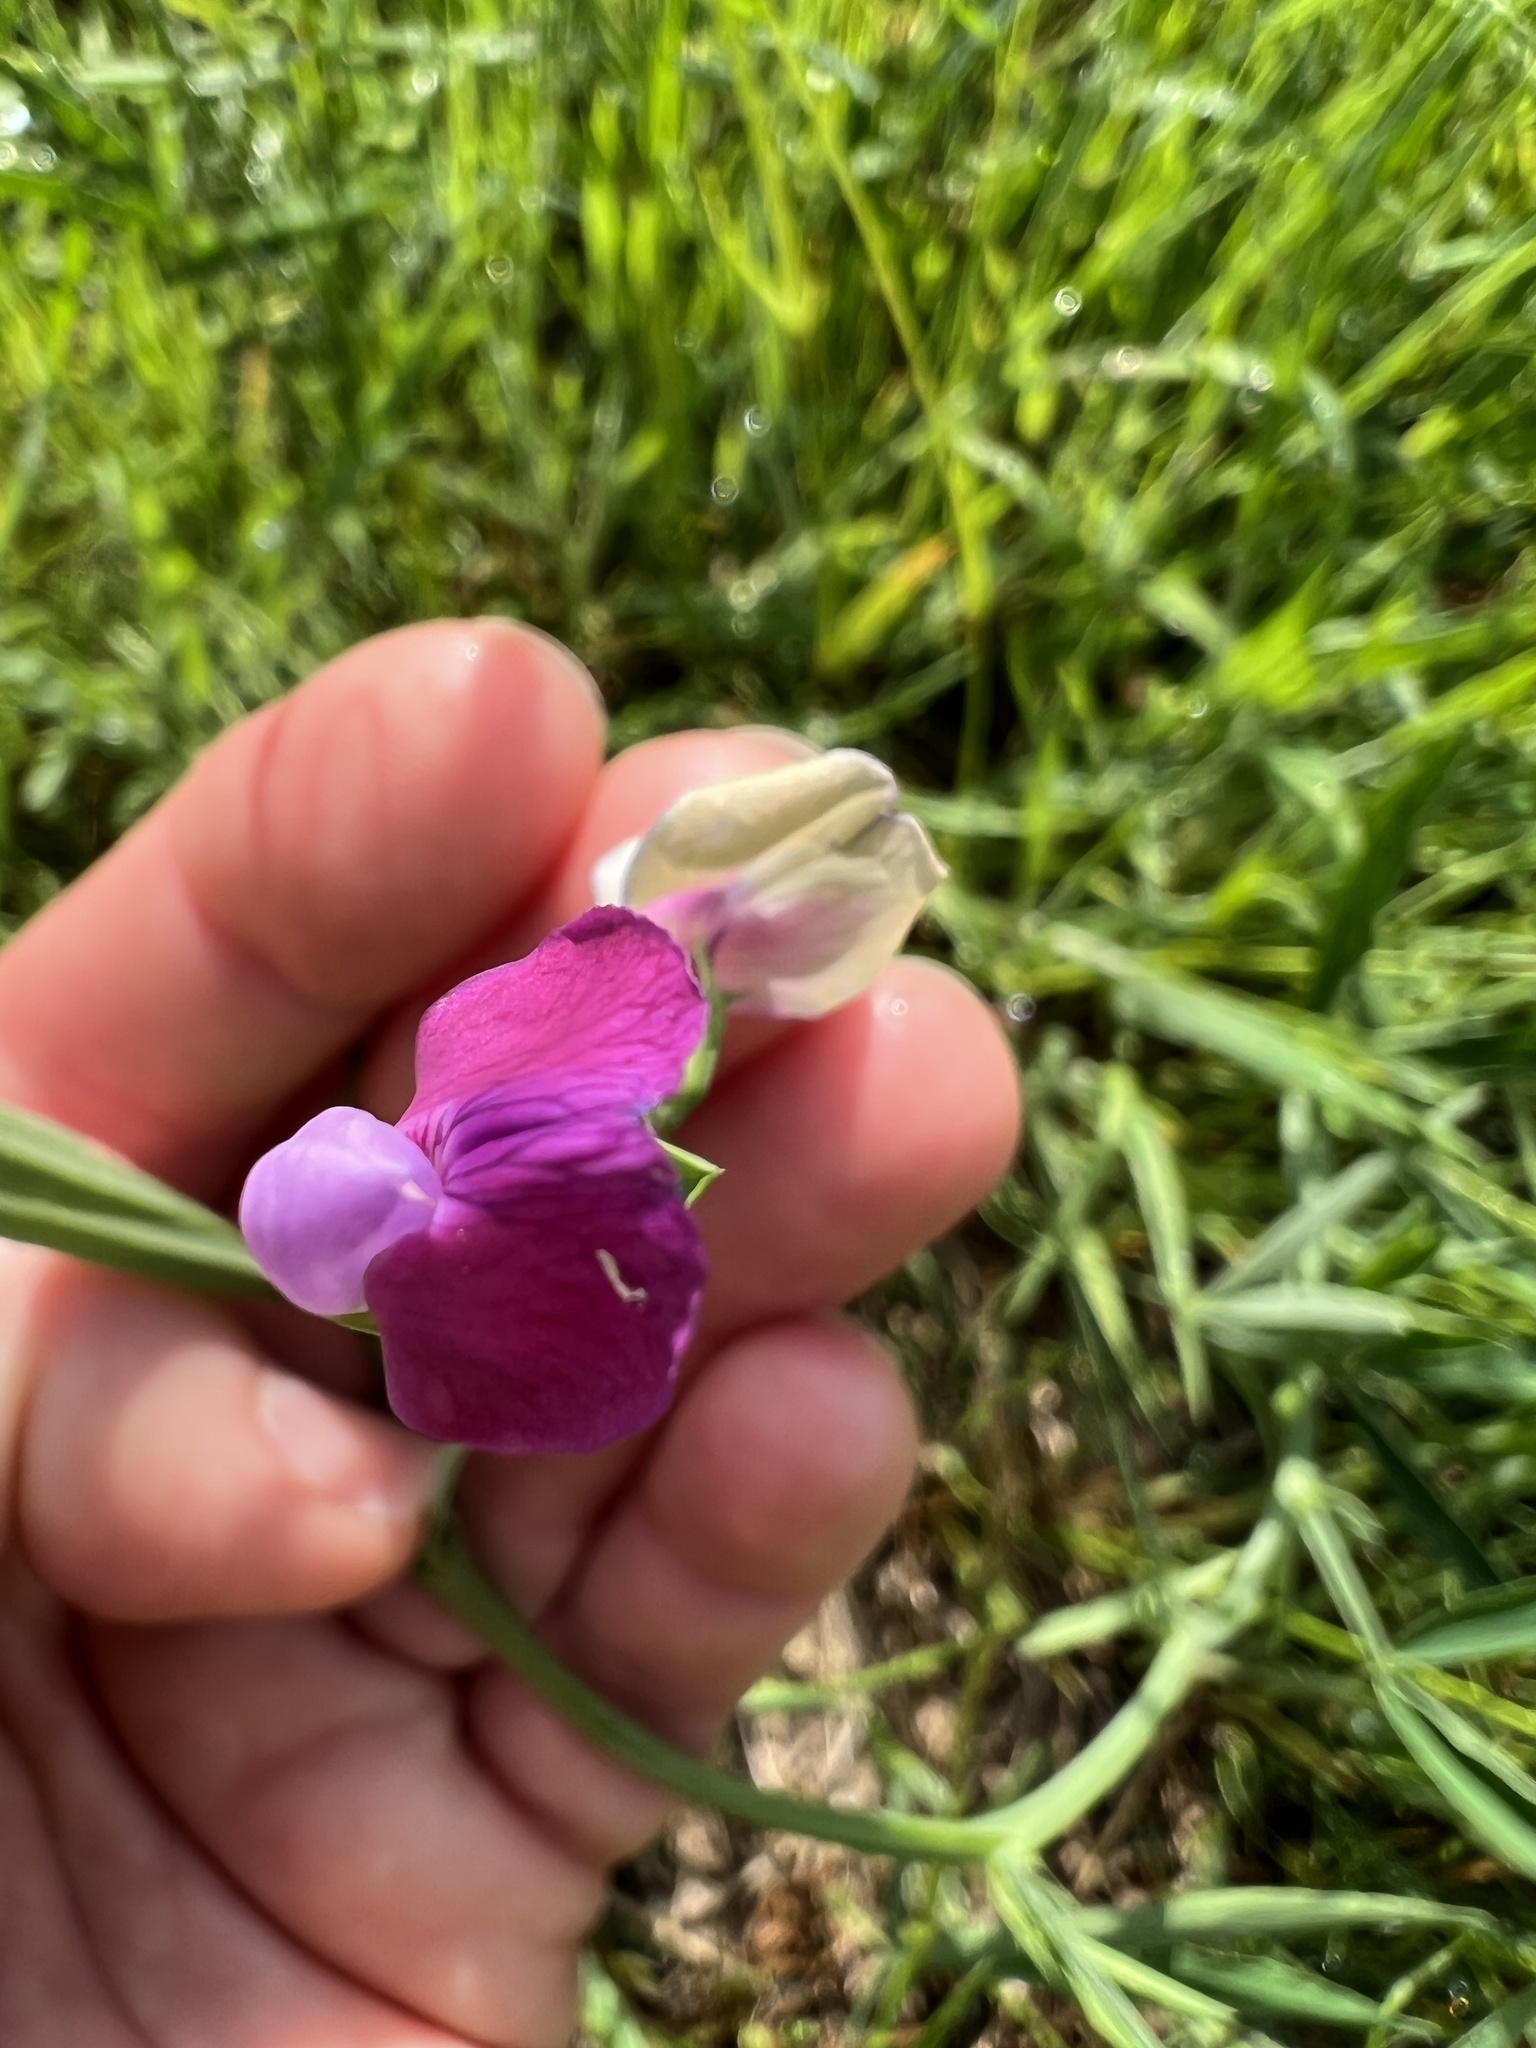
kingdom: Plantae
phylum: Tracheophyta
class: Magnoliopsida
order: Fabales
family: Fabaceae
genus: Lathyrus
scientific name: Lathyrus hirsutus
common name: Hairy vetchling
